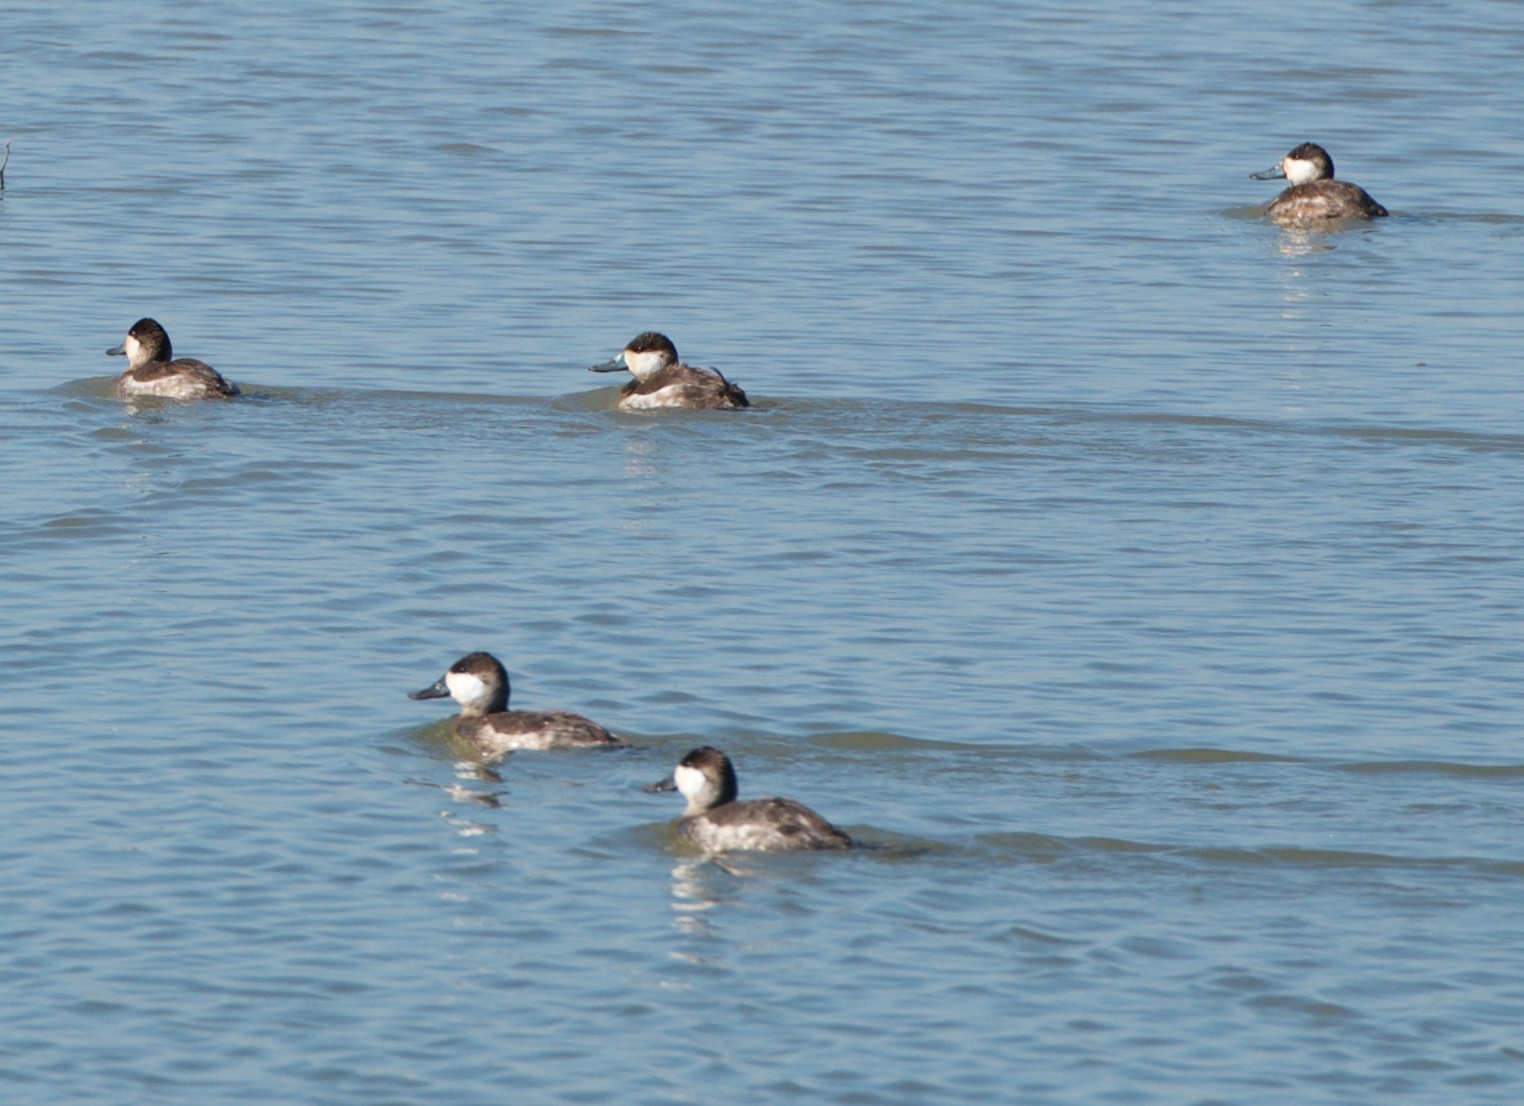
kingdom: Animalia
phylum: Chordata
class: Aves
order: Anseriformes
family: Anatidae
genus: Oxyura
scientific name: Oxyura jamaicensis
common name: Ruddy duck
